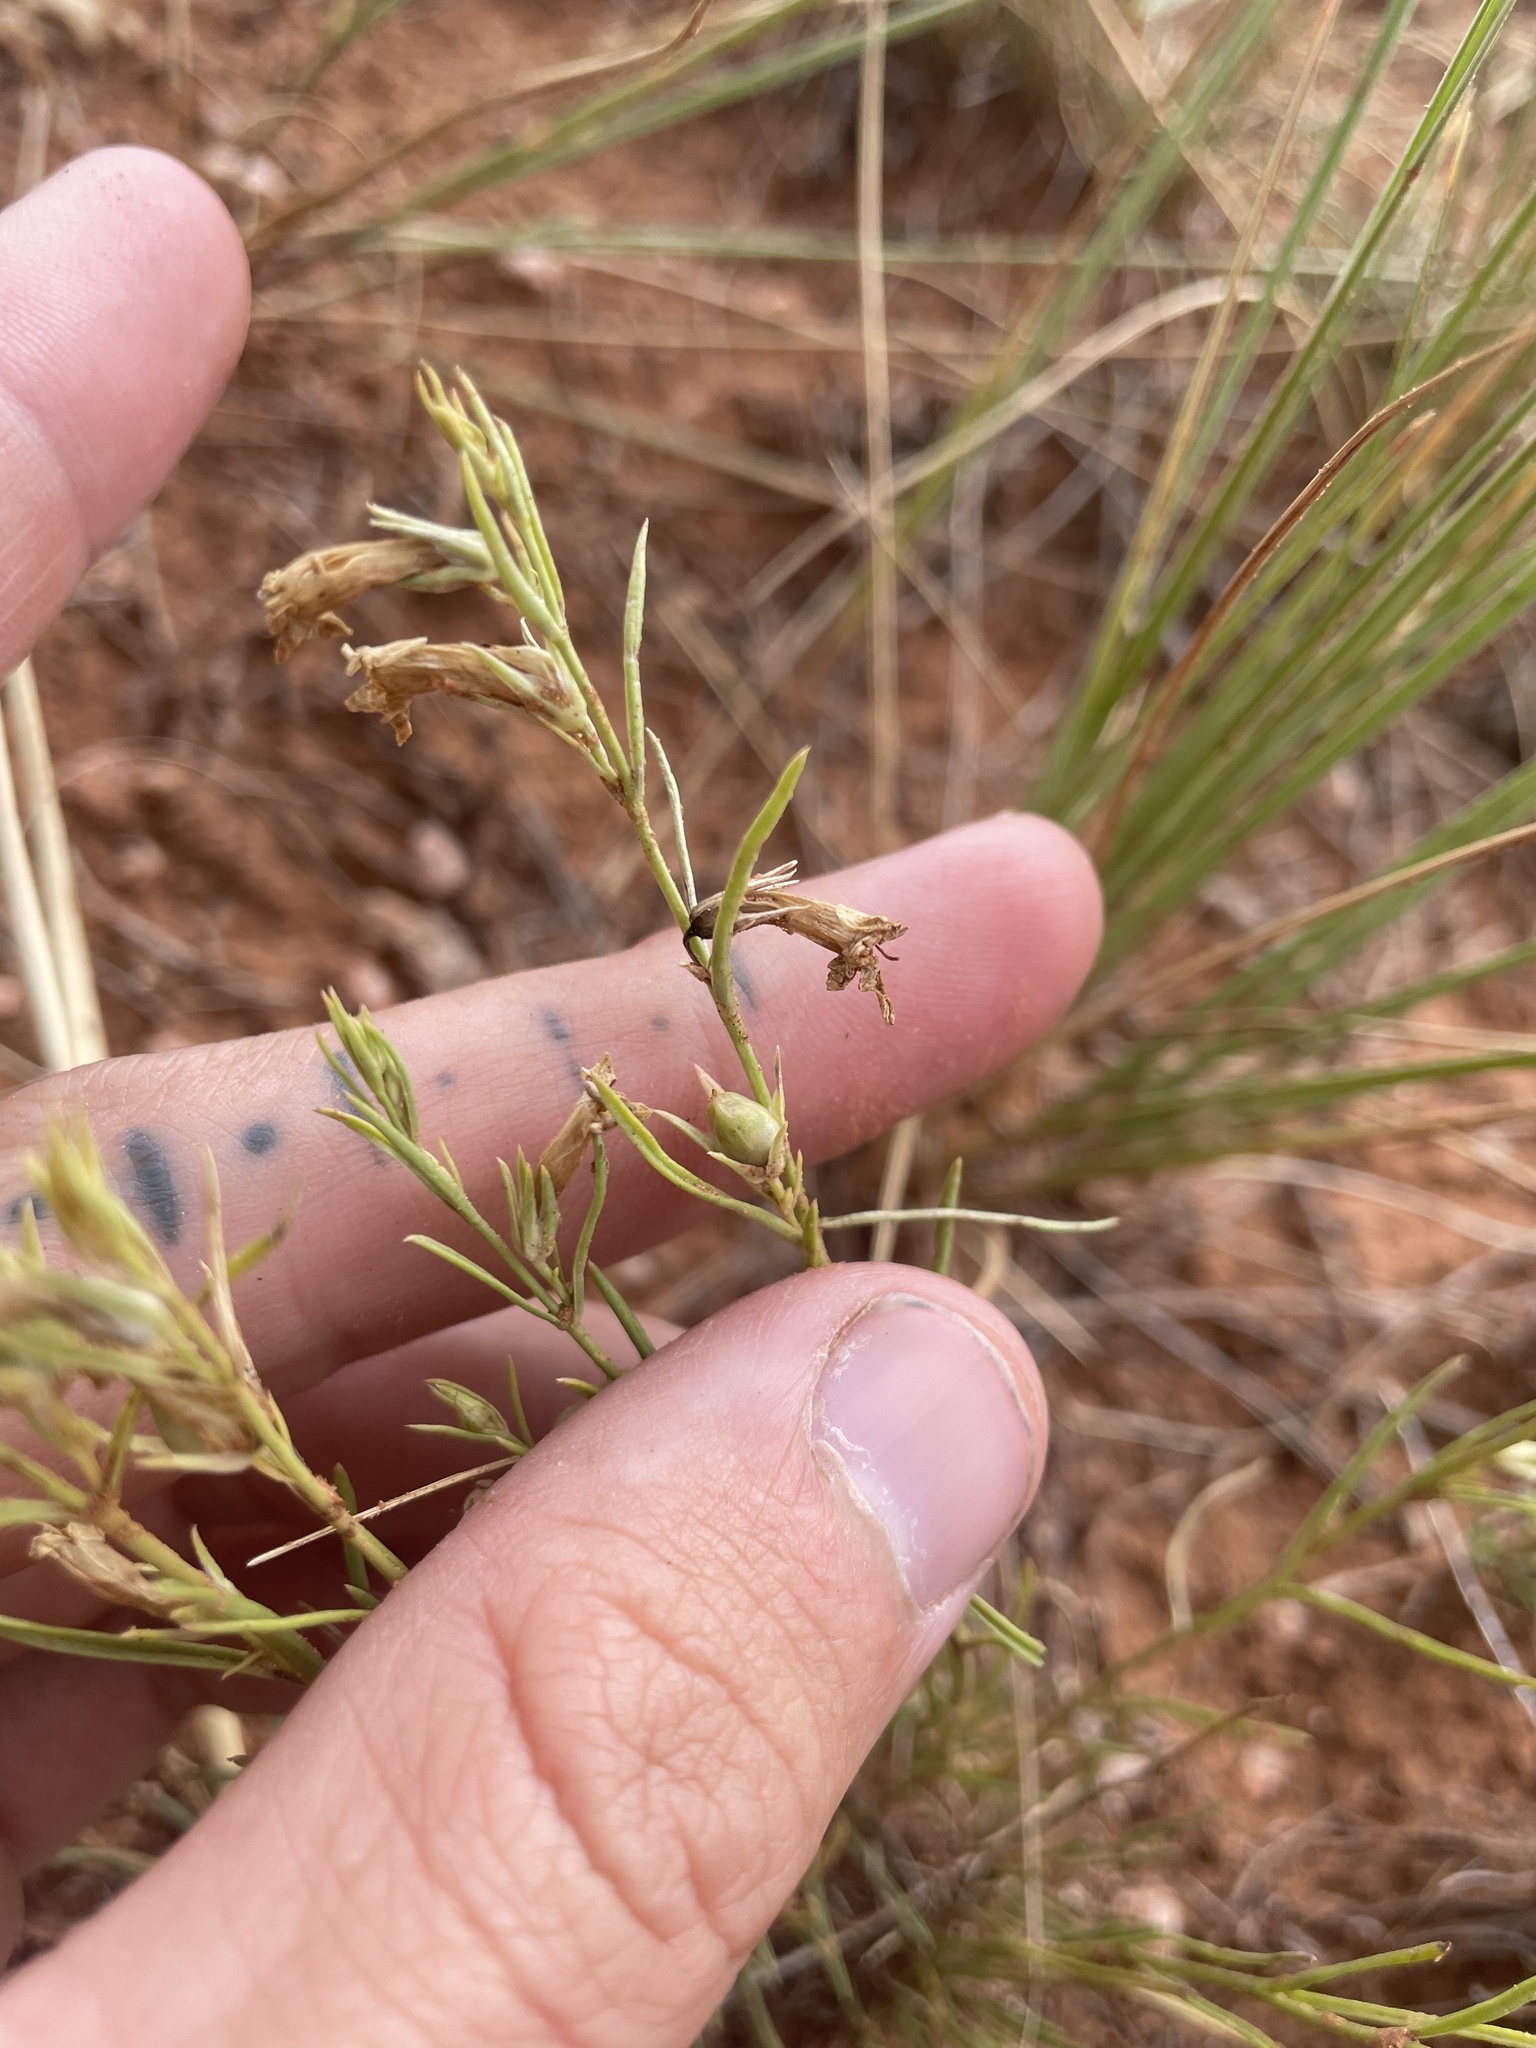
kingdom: Plantae
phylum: Tracheophyta
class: Magnoliopsida
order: Lamiales
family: Plantaginaceae
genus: Penstemon
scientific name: Penstemon laricifolius
